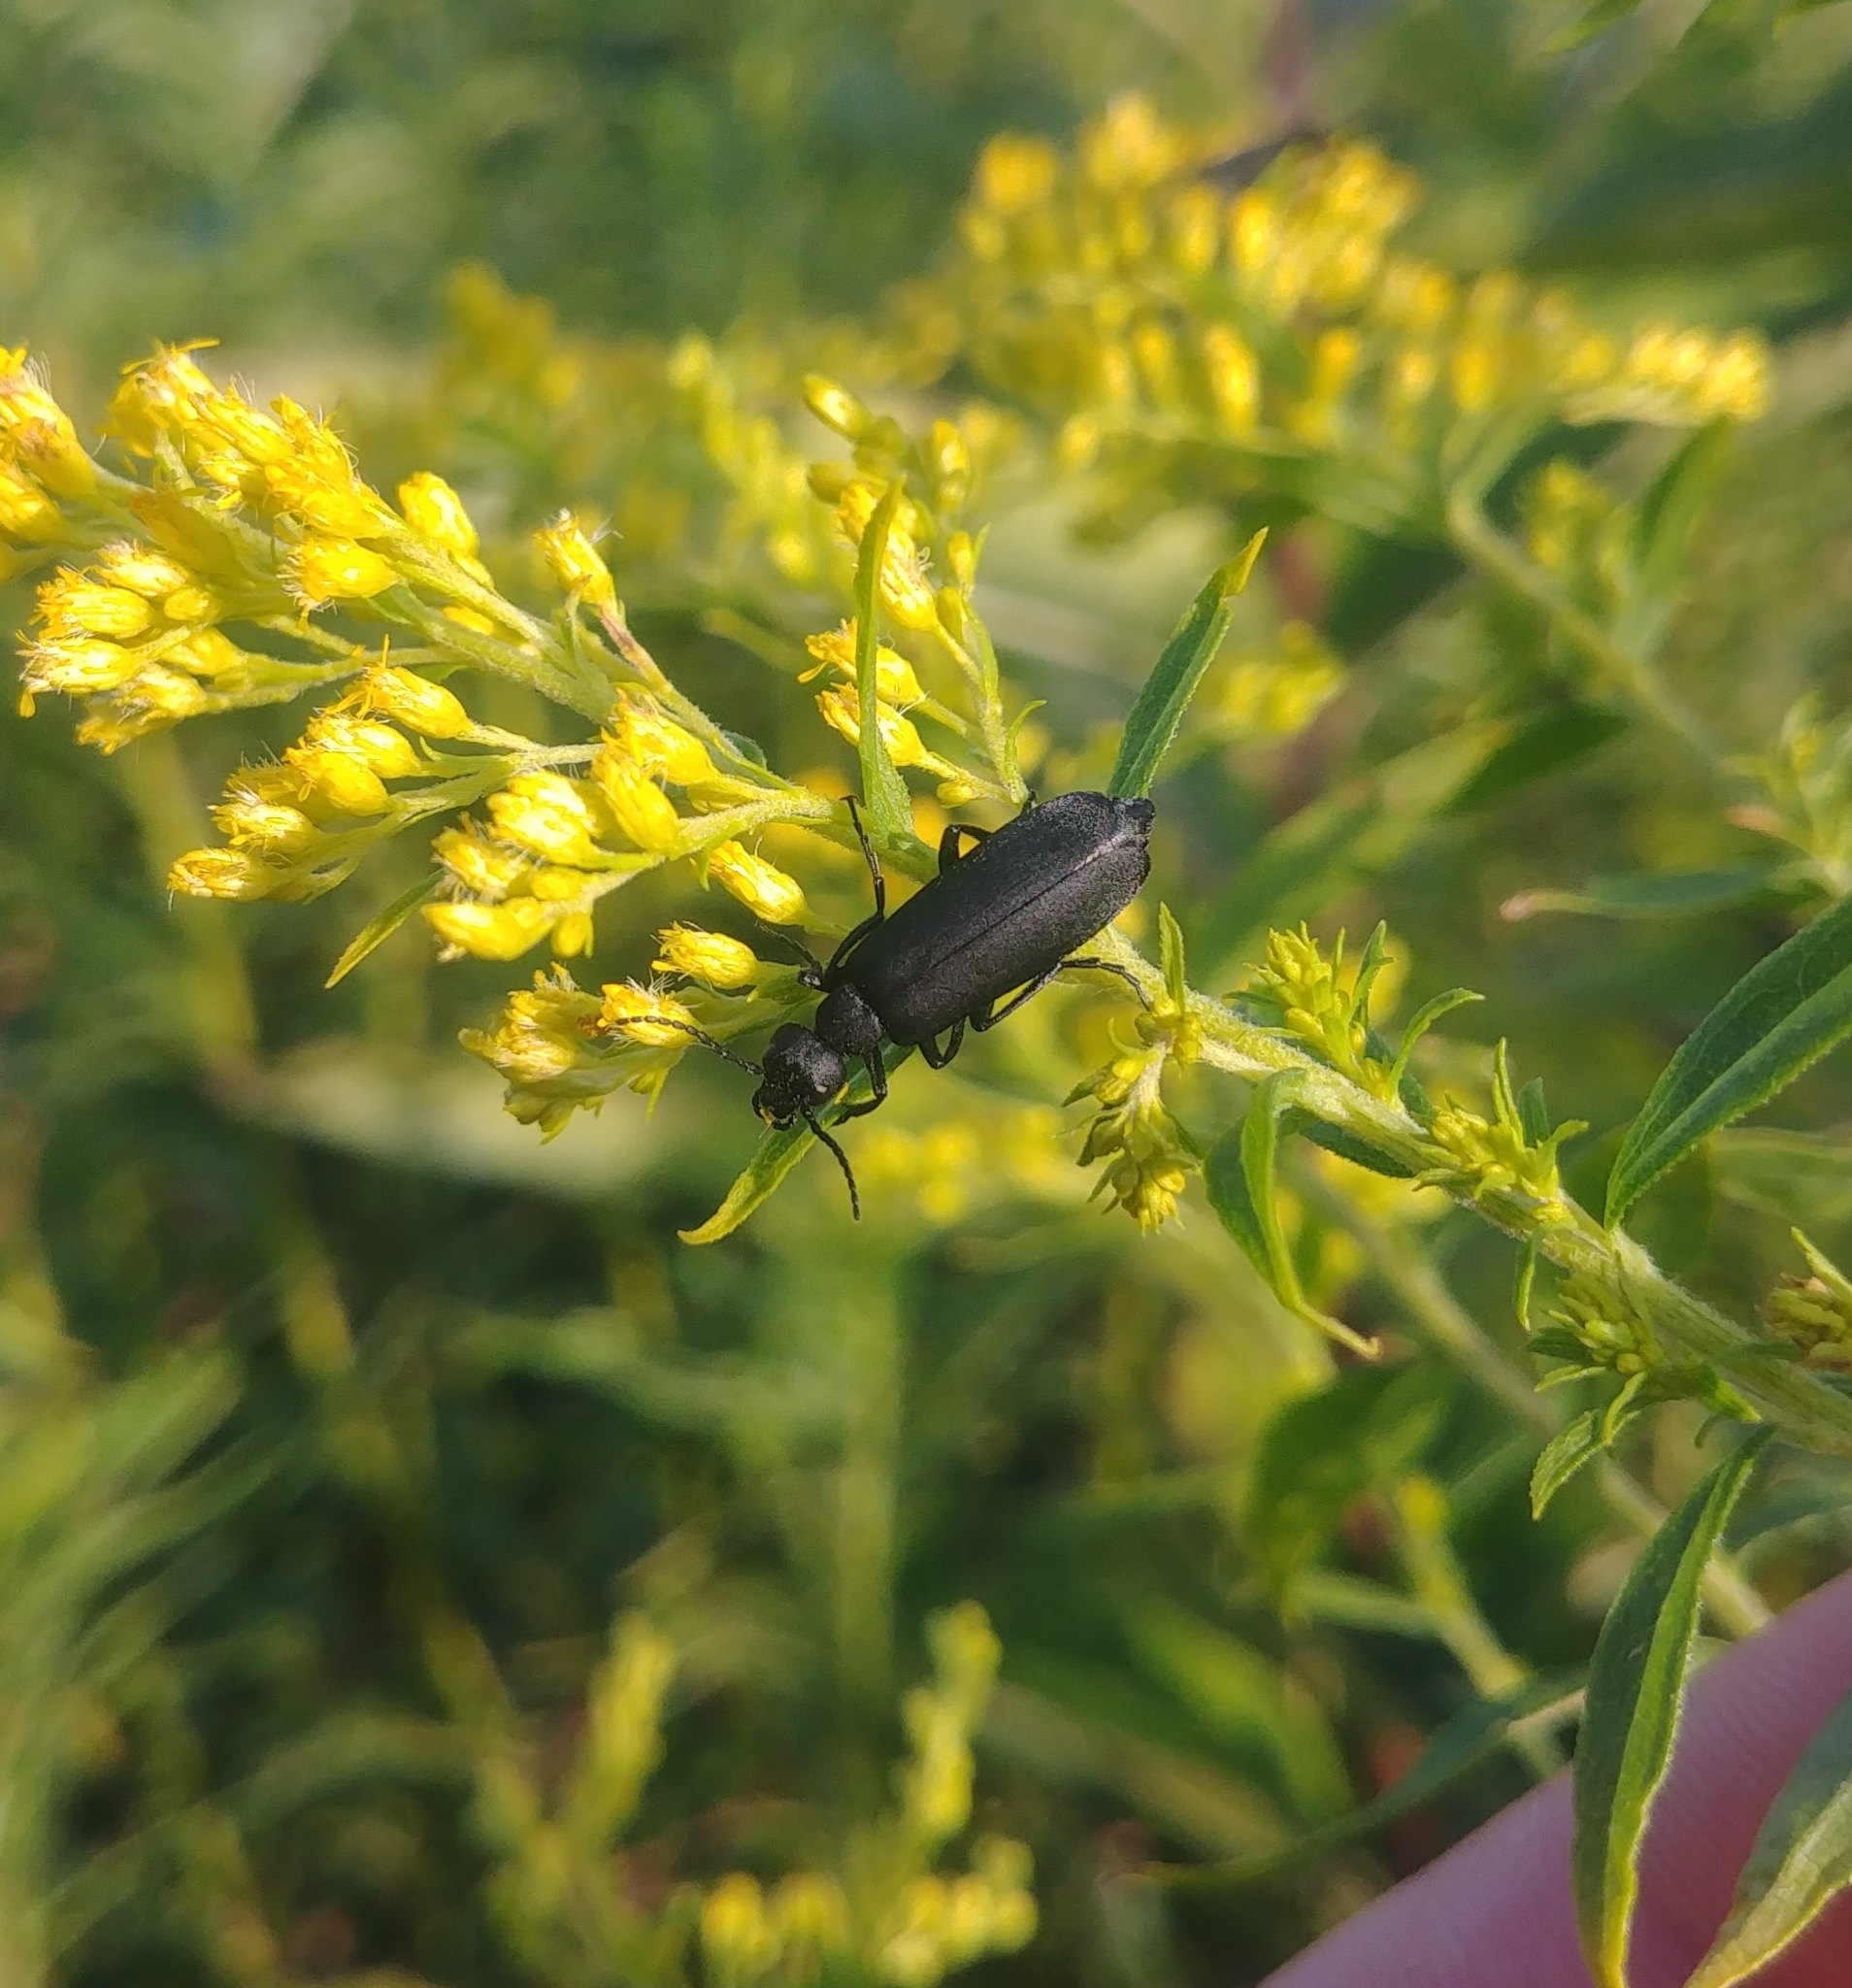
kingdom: Animalia
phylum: Arthropoda
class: Insecta
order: Coleoptera
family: Meloidae
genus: Epicauta
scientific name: Epicauta pensylvanica
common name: Black blister beetle
